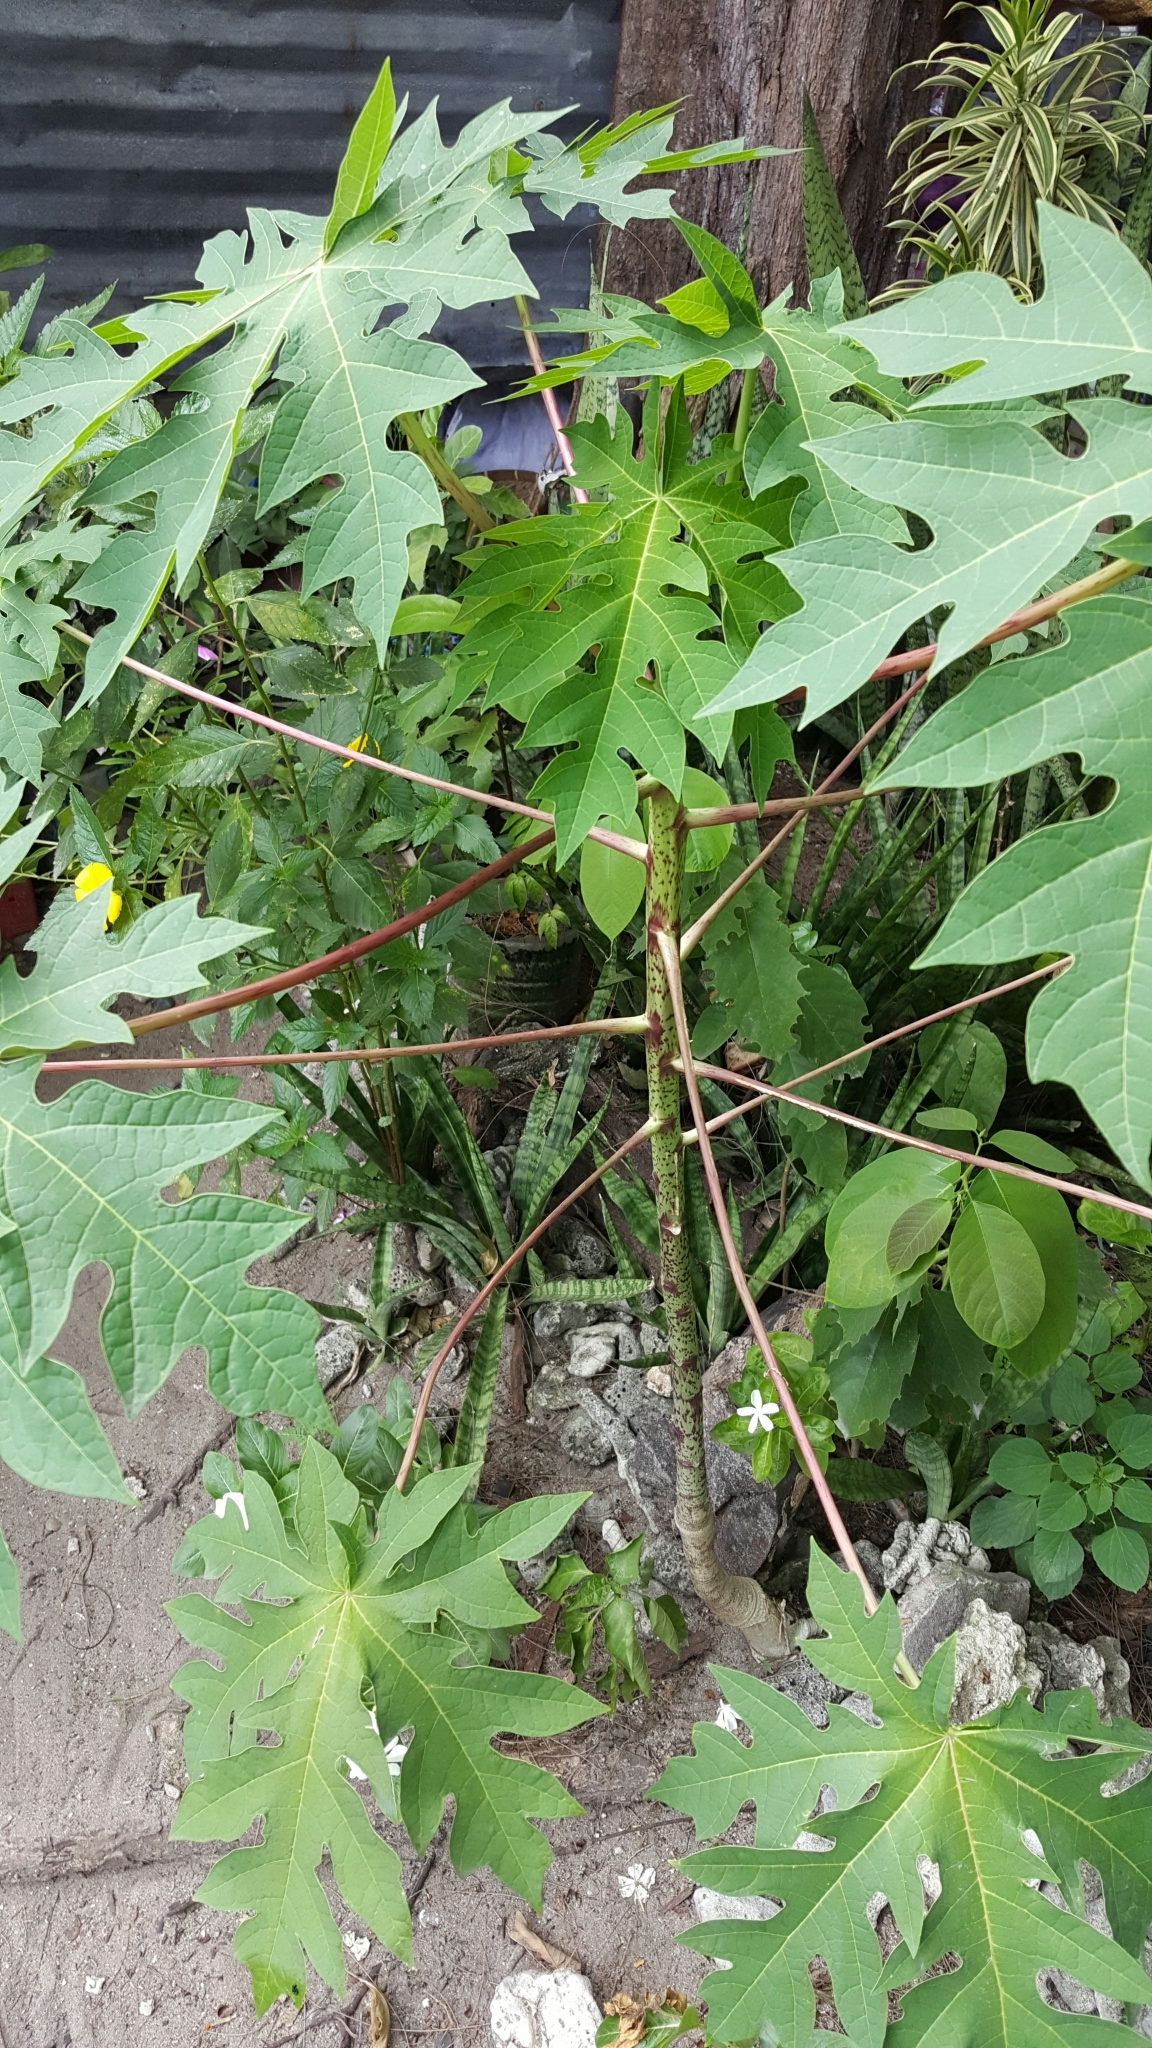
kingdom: Plantae
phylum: Tracheophyta
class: Magnoliopsida
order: Brassicales
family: Caricaceae
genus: Carica
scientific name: Carica papaya
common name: Papaya
